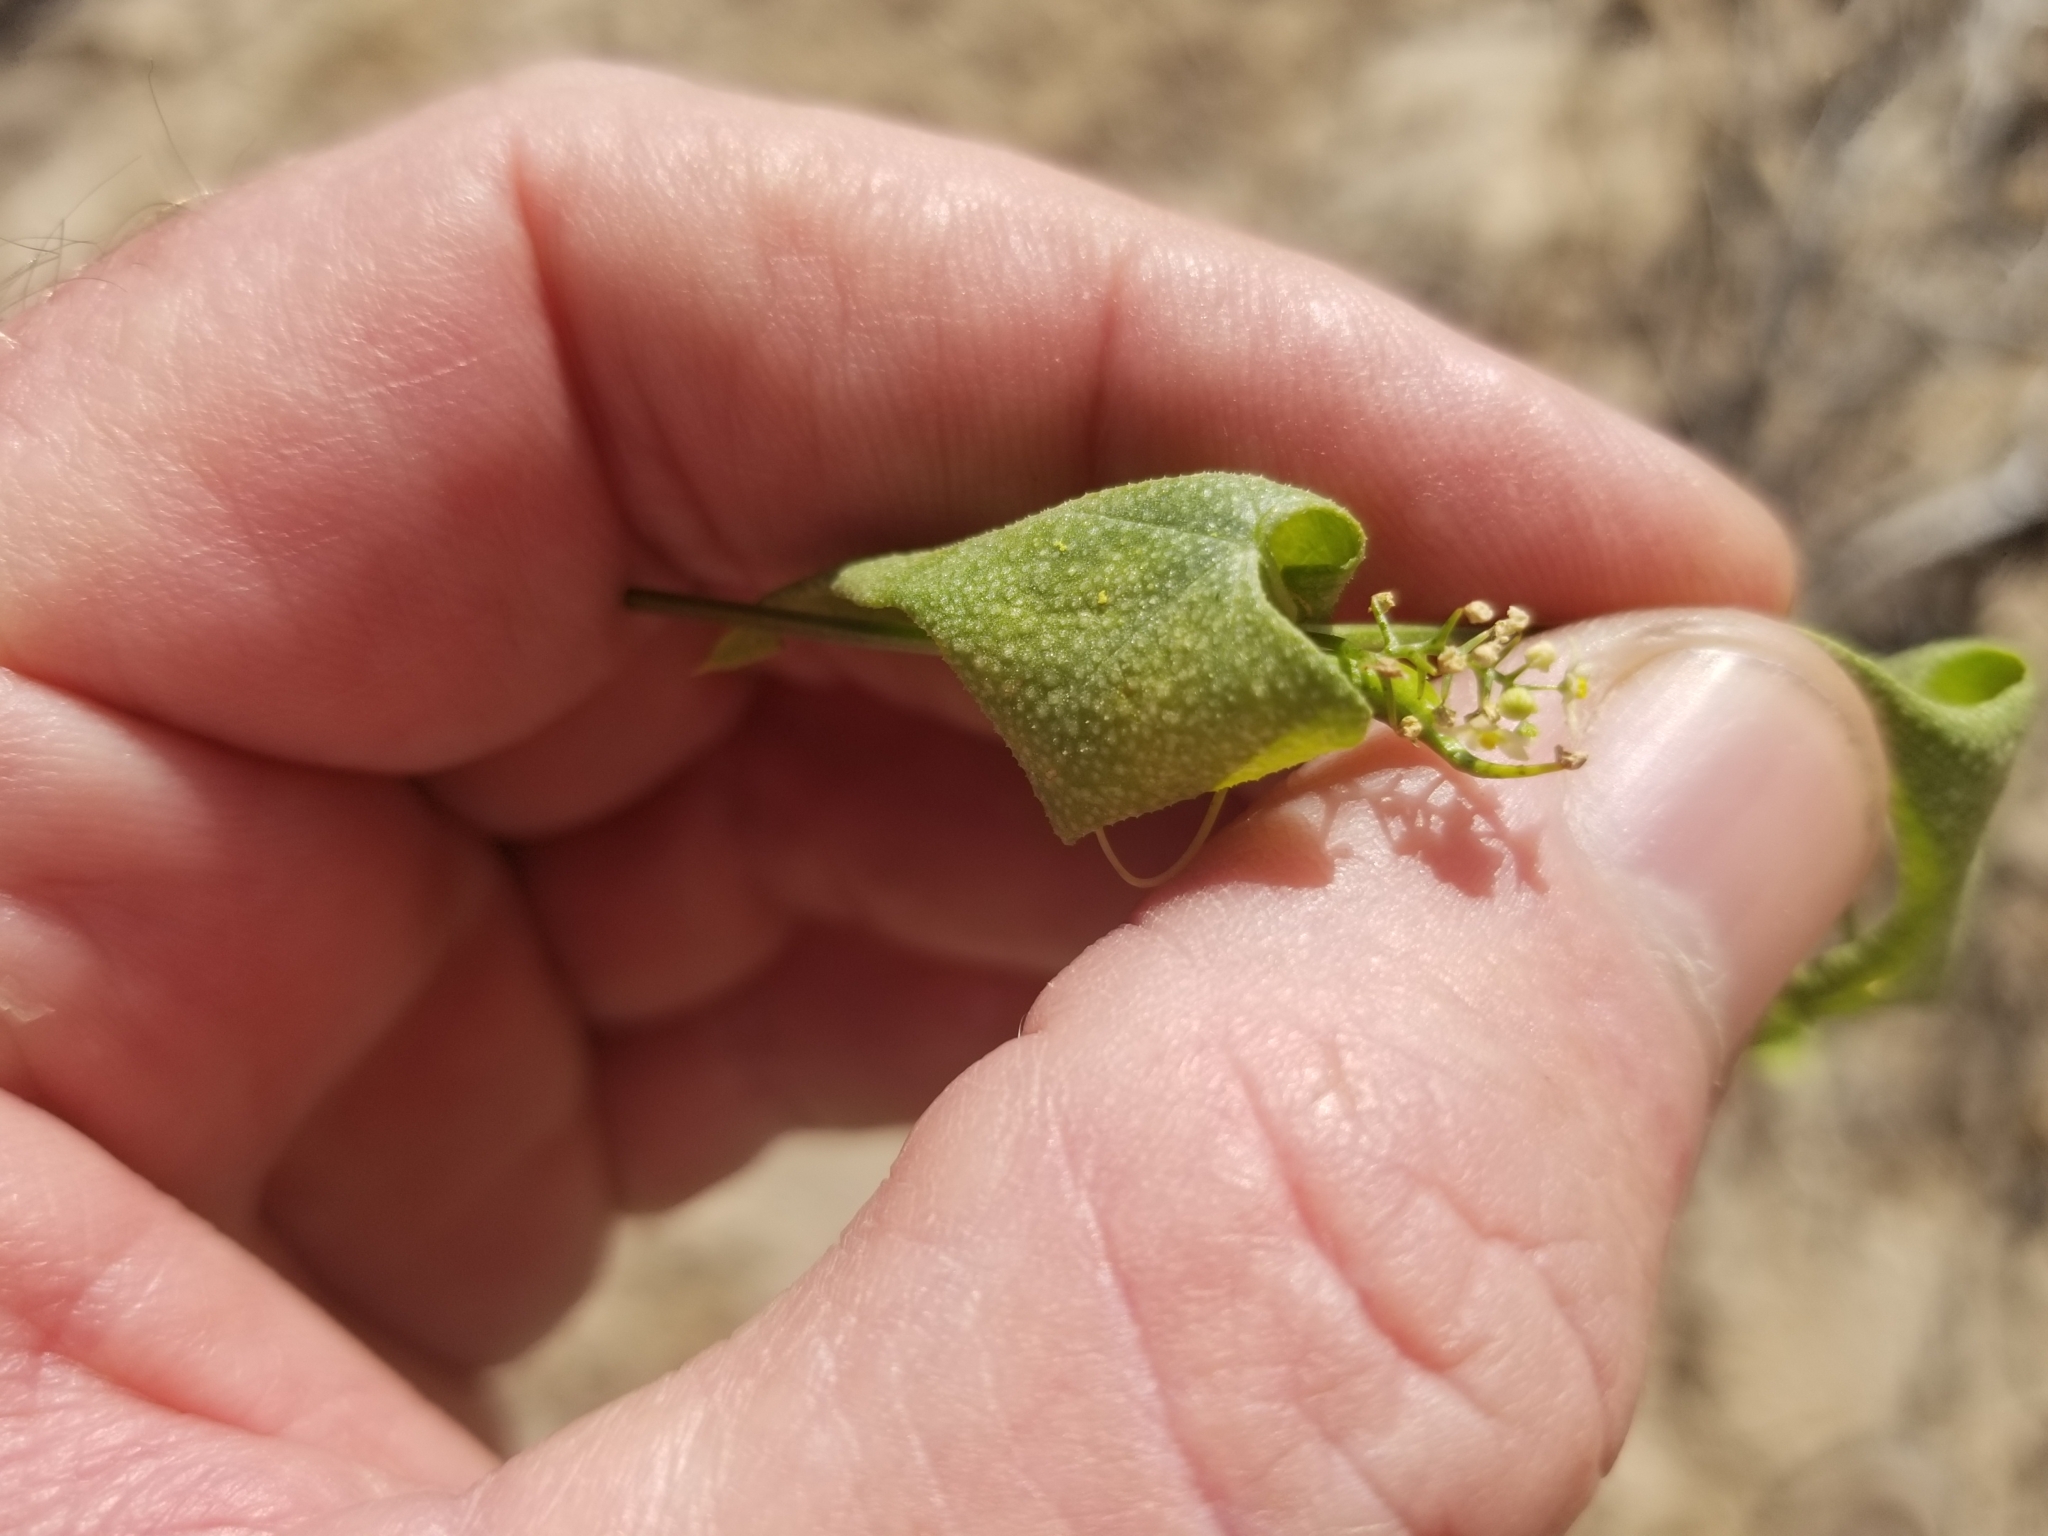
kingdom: Plantae
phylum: Tracheophyta
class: Magnoliopsida
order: Cucurbitales
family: Cucurbitaceae
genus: Echinopepon
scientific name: Echinopepon bigelovii
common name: Desert starvine
